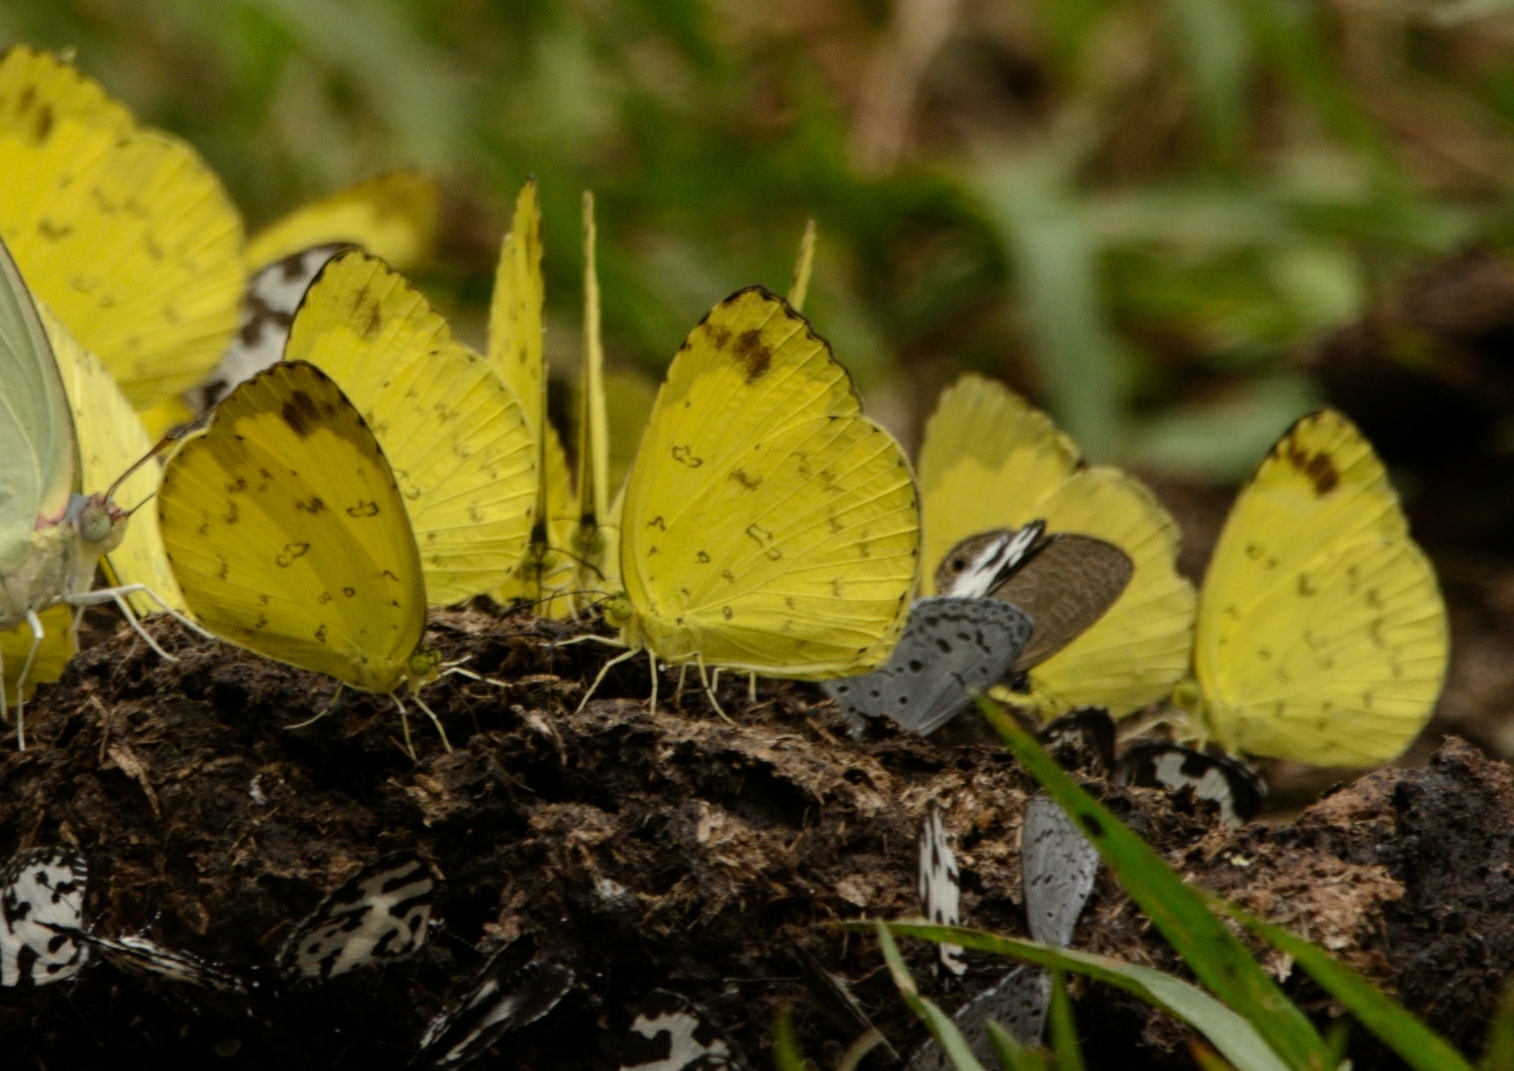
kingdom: Animalia
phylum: Arthropoda
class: Insecta
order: Lepidoptera
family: Pieridae
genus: Eurema
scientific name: Eurema blanda
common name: Three-spot grass yellow
